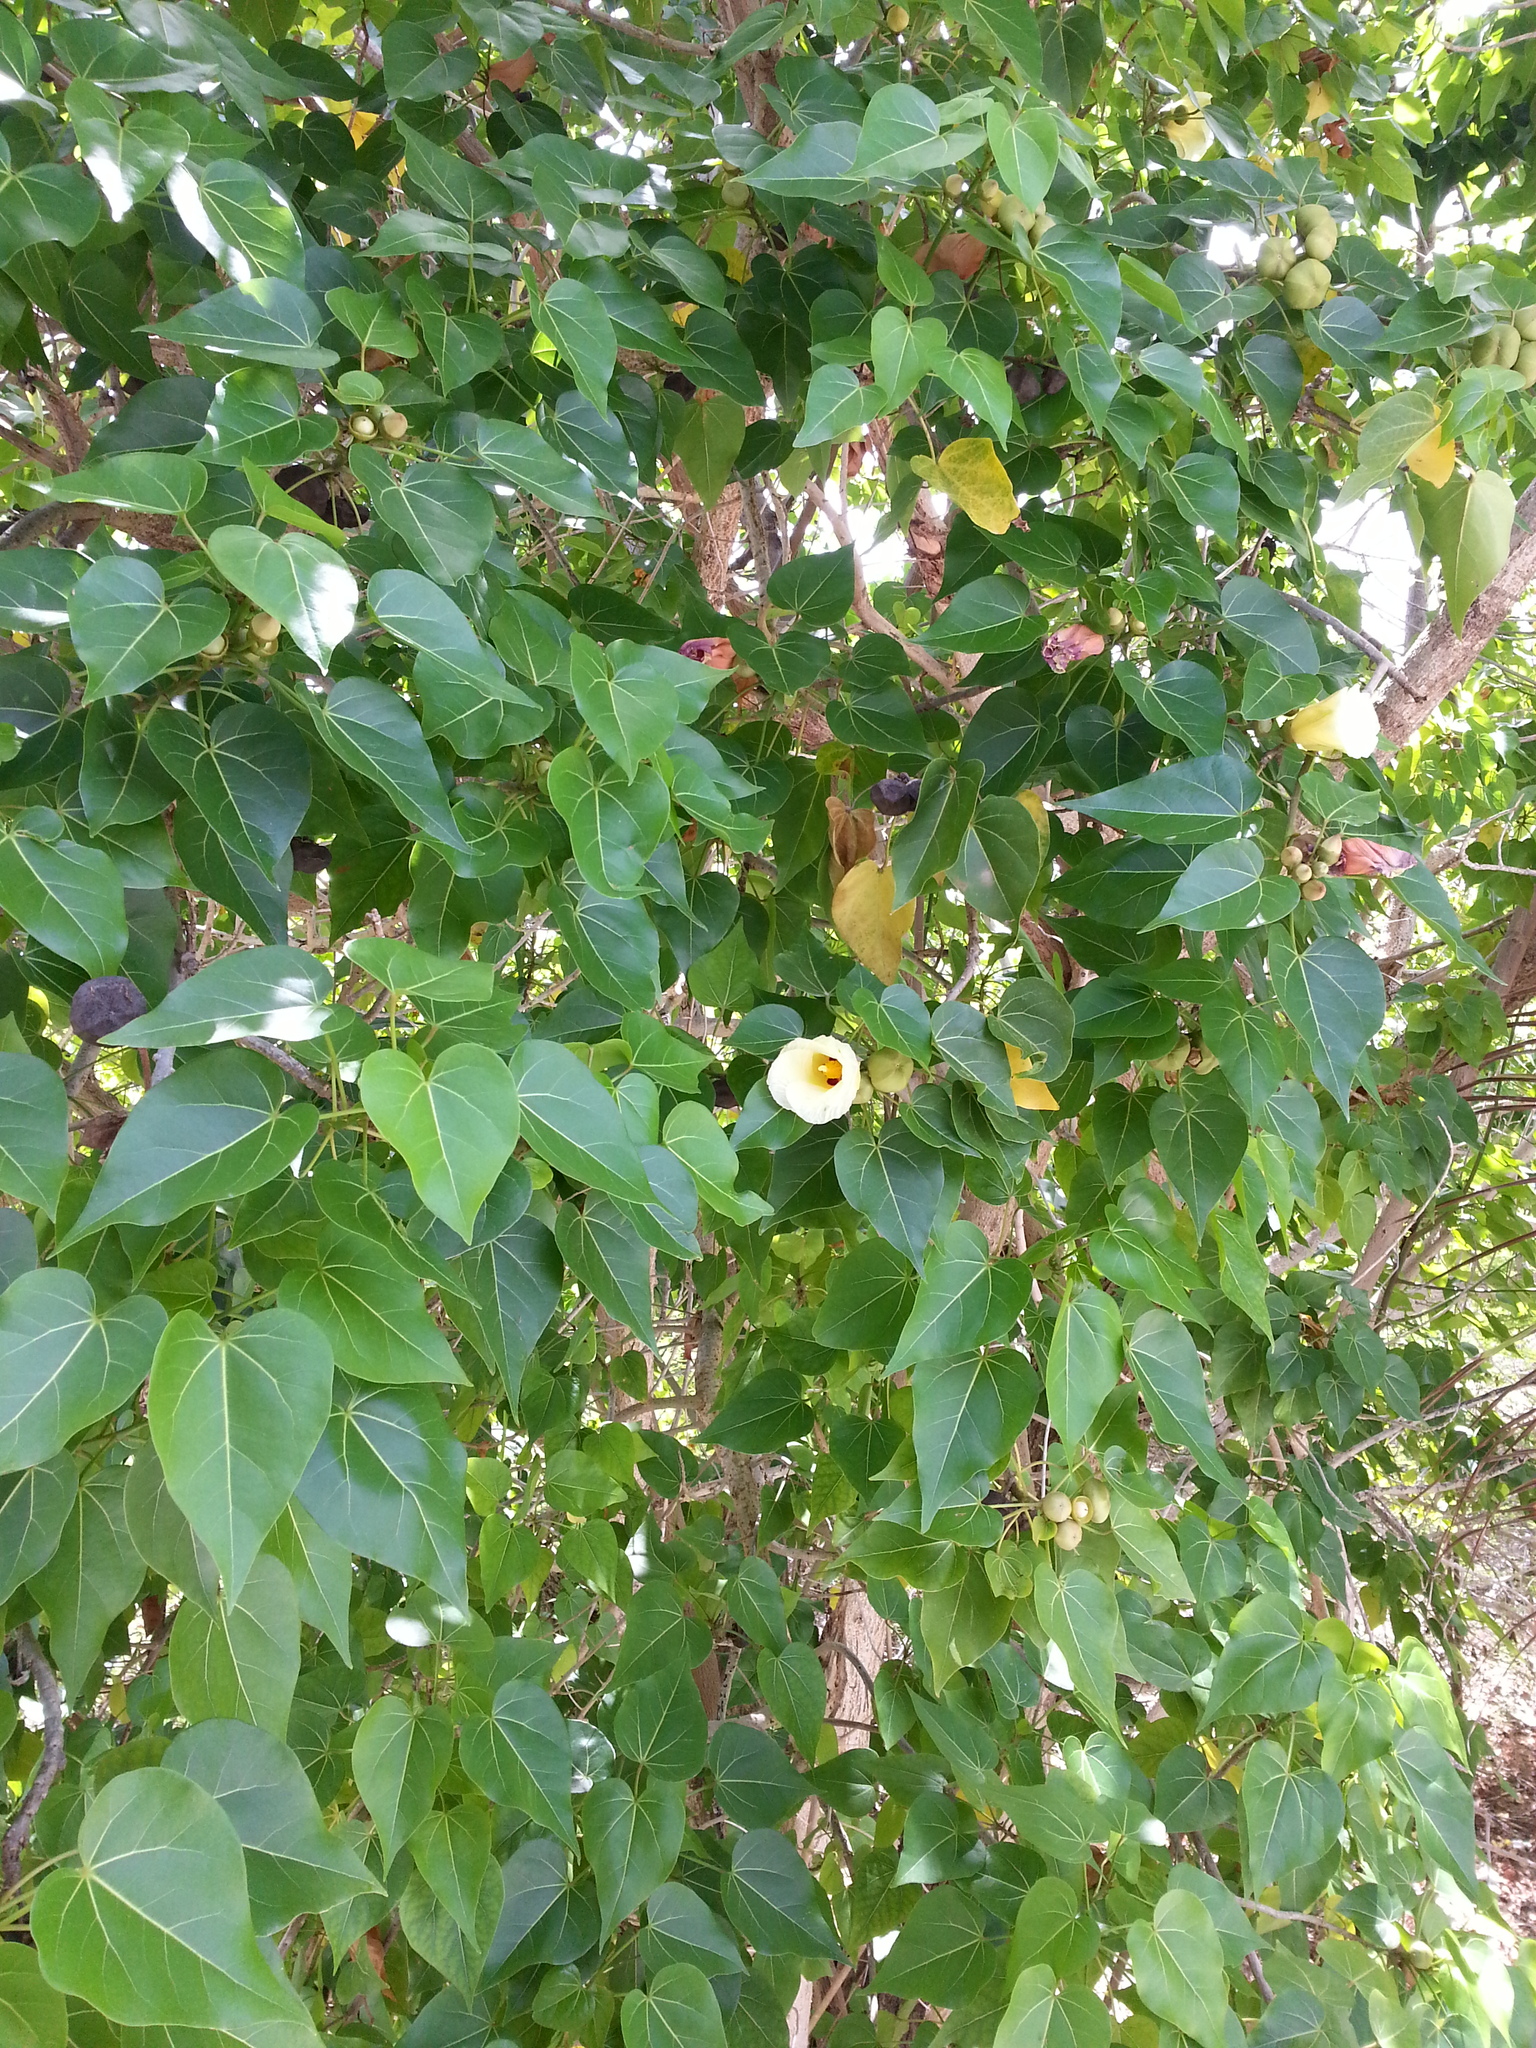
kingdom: Plantae
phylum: Tracheophyta
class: Magnoliopsida
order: Malvales
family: Malvaceae
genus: Thespesia
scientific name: Thespesia populnea
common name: Seaside mahoe
